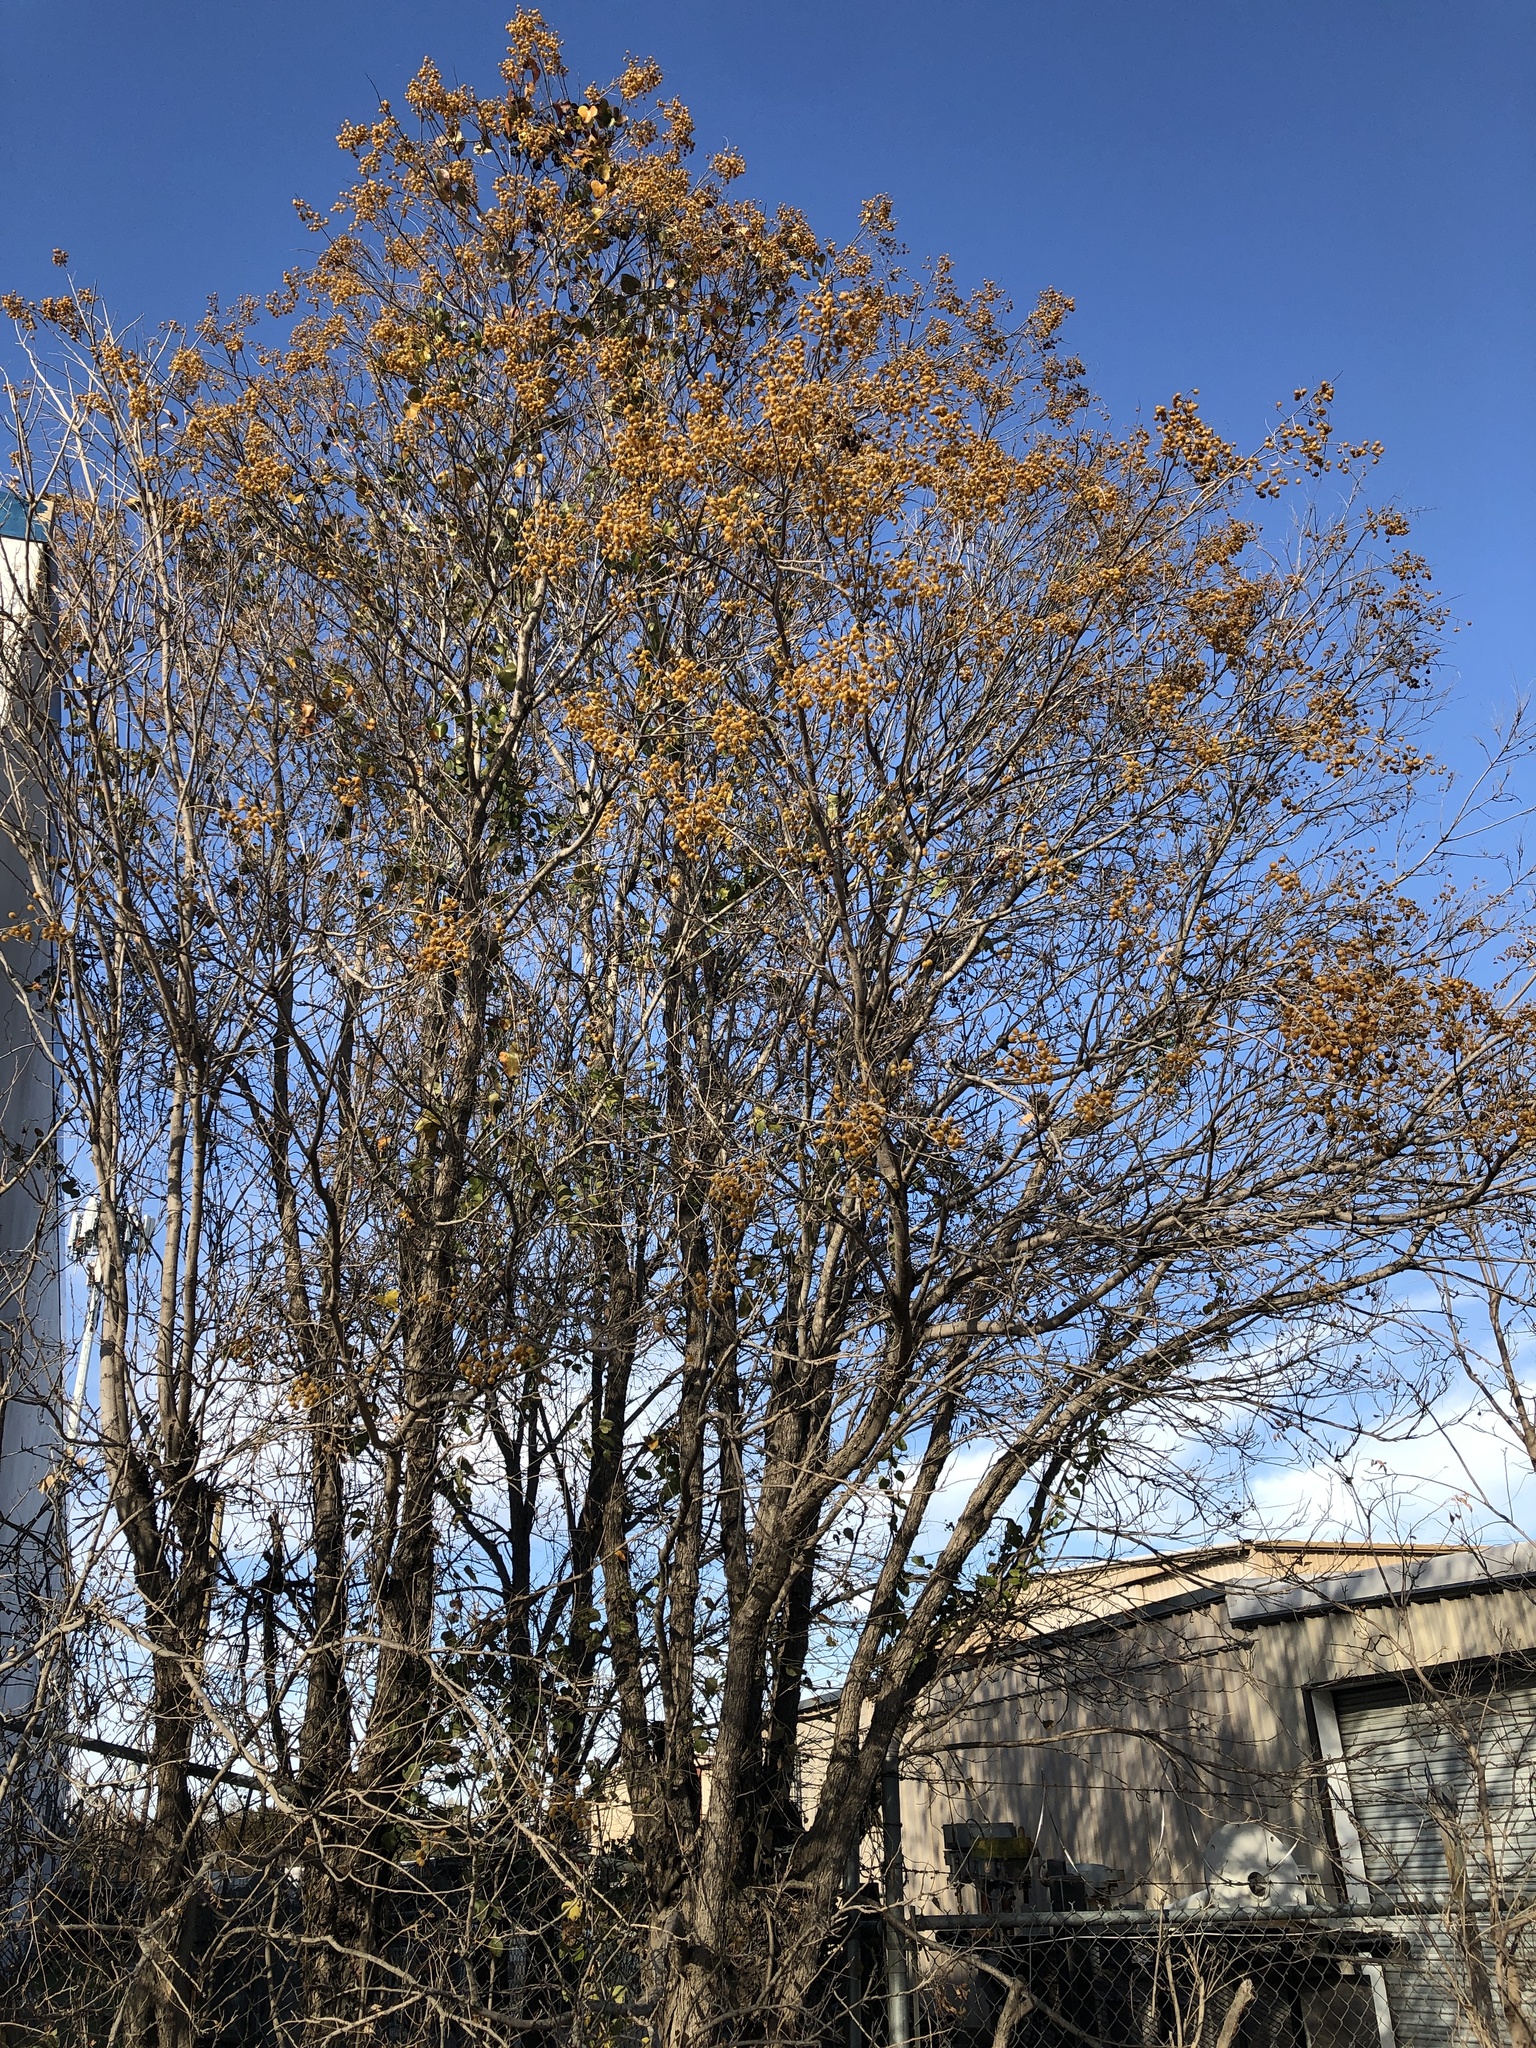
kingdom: Plantae
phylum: Tracheophyta
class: Magnoliopsida
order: Sapindales
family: Sapindaceae
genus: Sapindus
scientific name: Sapindus drummondii
